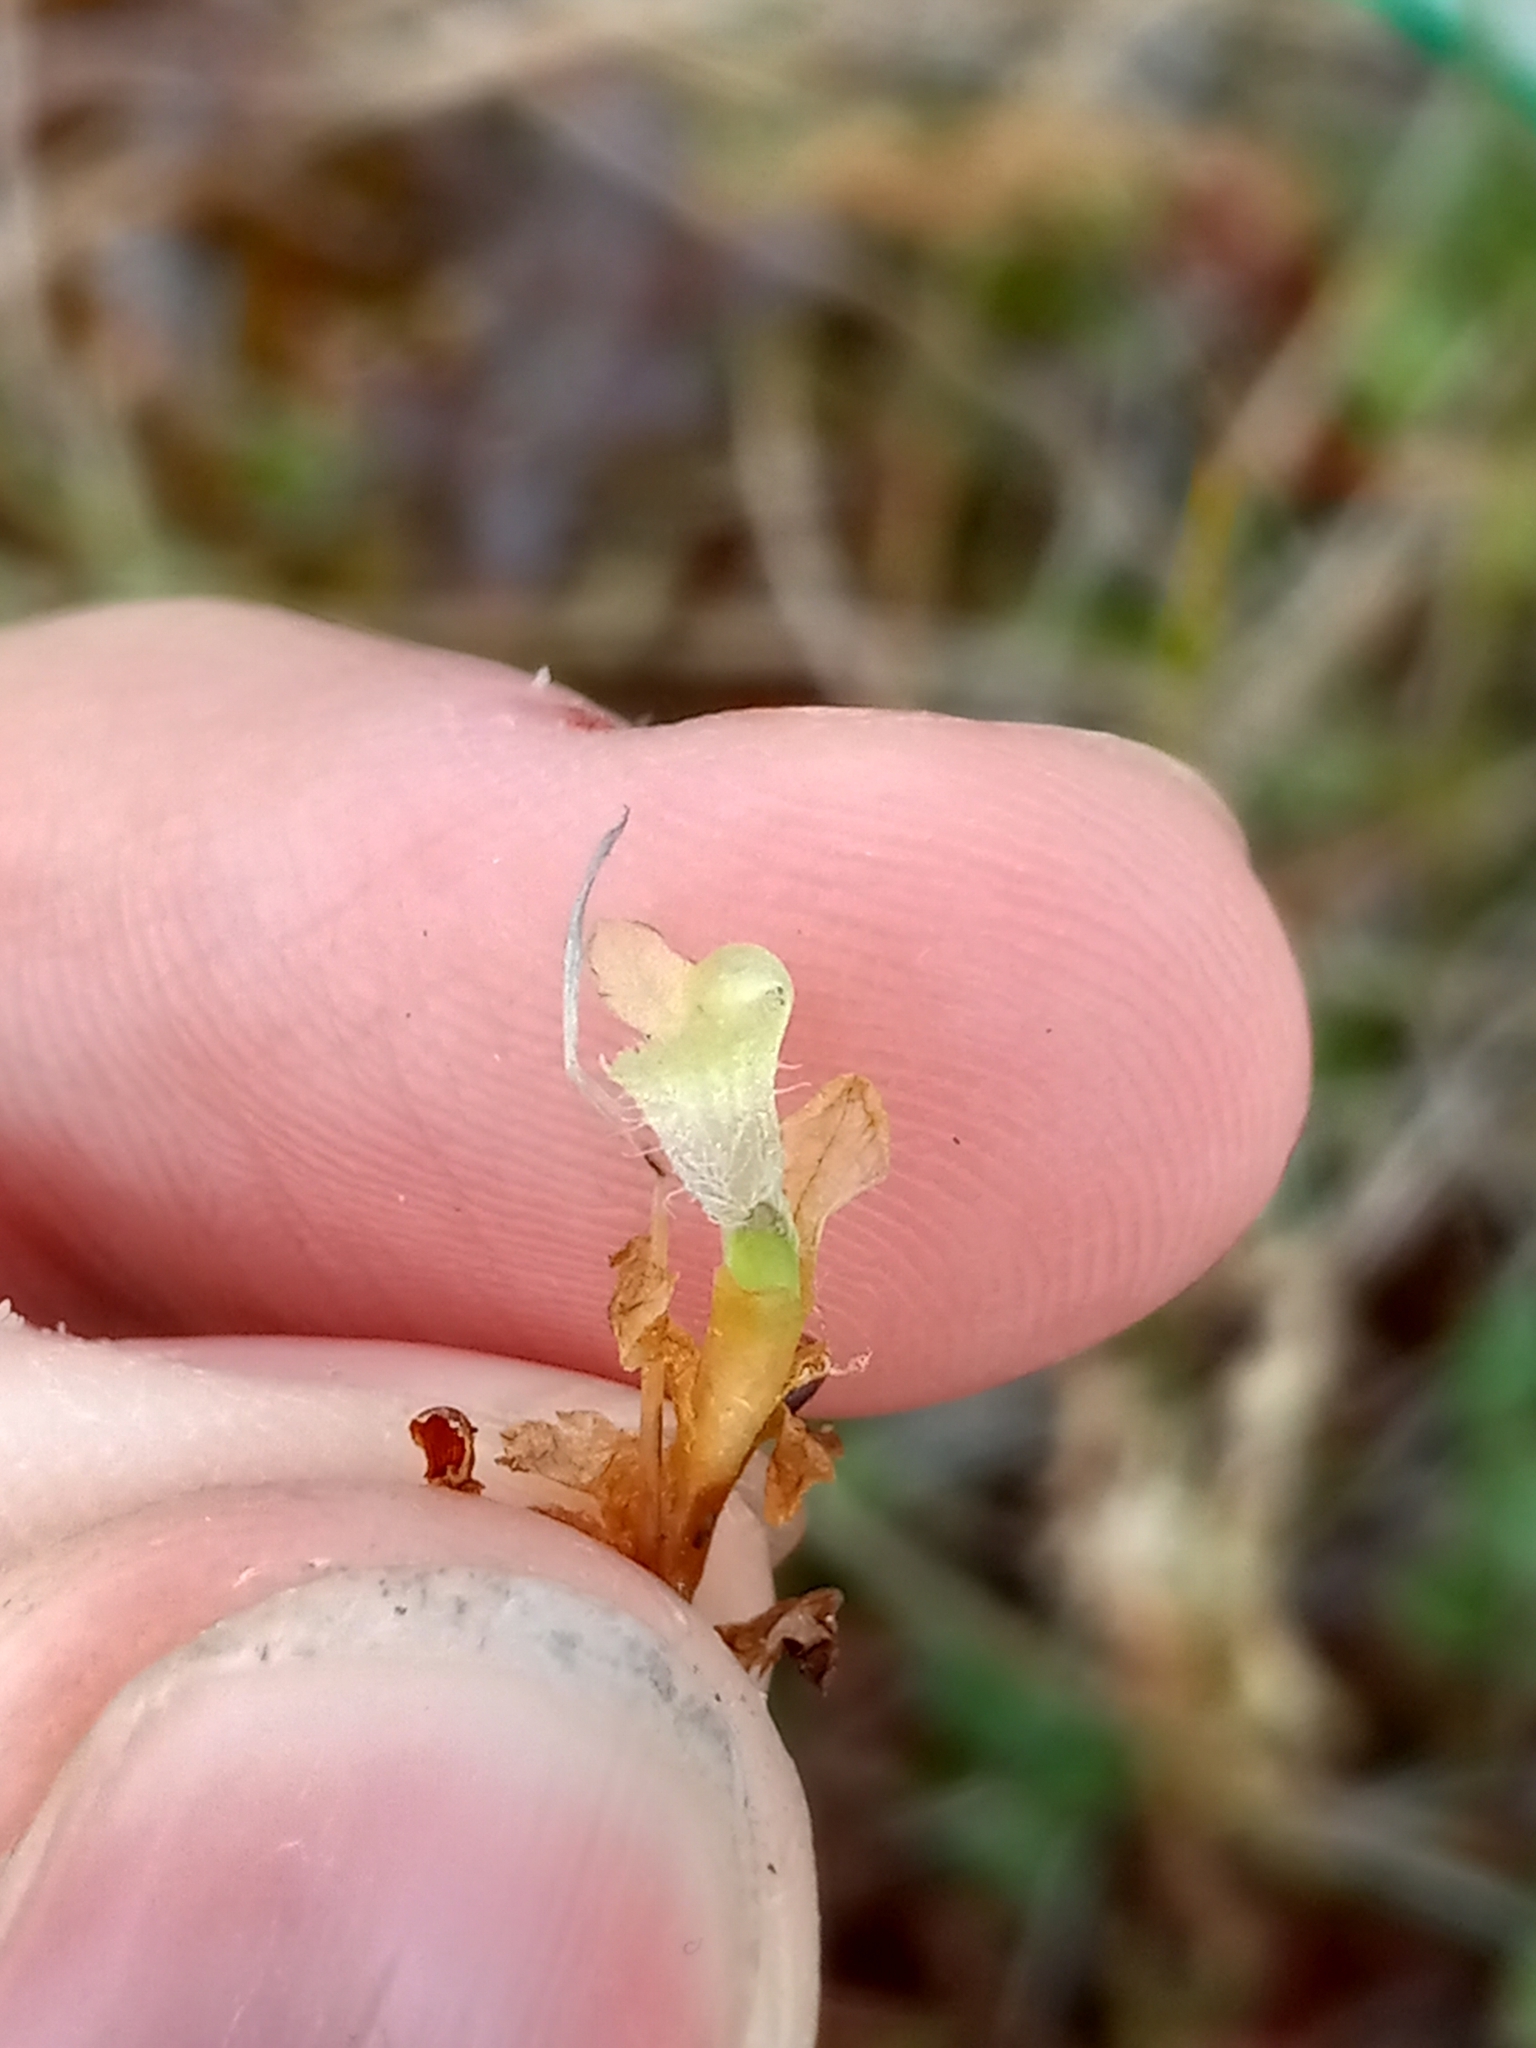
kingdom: Plantae
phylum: Tracheophyta
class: Magnoliopsida
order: Lamiales
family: Lentibulariaceae
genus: Pinguicula
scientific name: Pinguicula villosa
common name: Hairy butterwort
